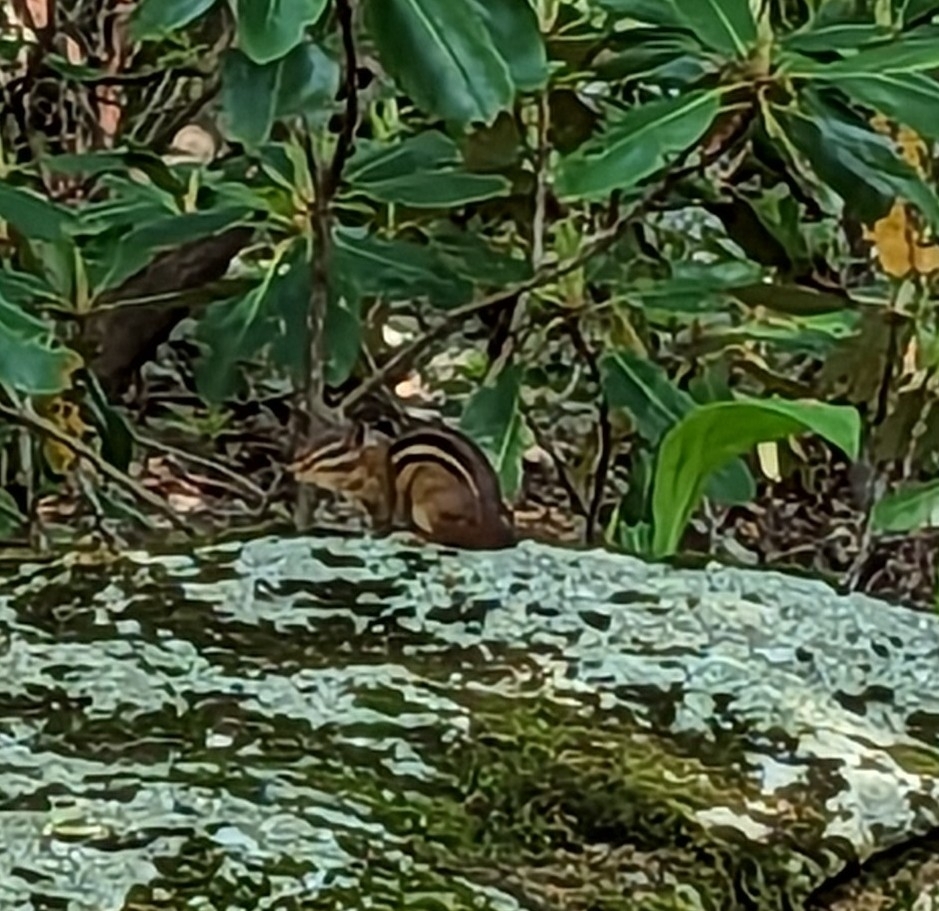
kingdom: Animalia
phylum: Chordata
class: Mammalia
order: Rodentia
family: Sciuridae
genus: Tamias
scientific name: Tamias striatus
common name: Eastern chipmunk
